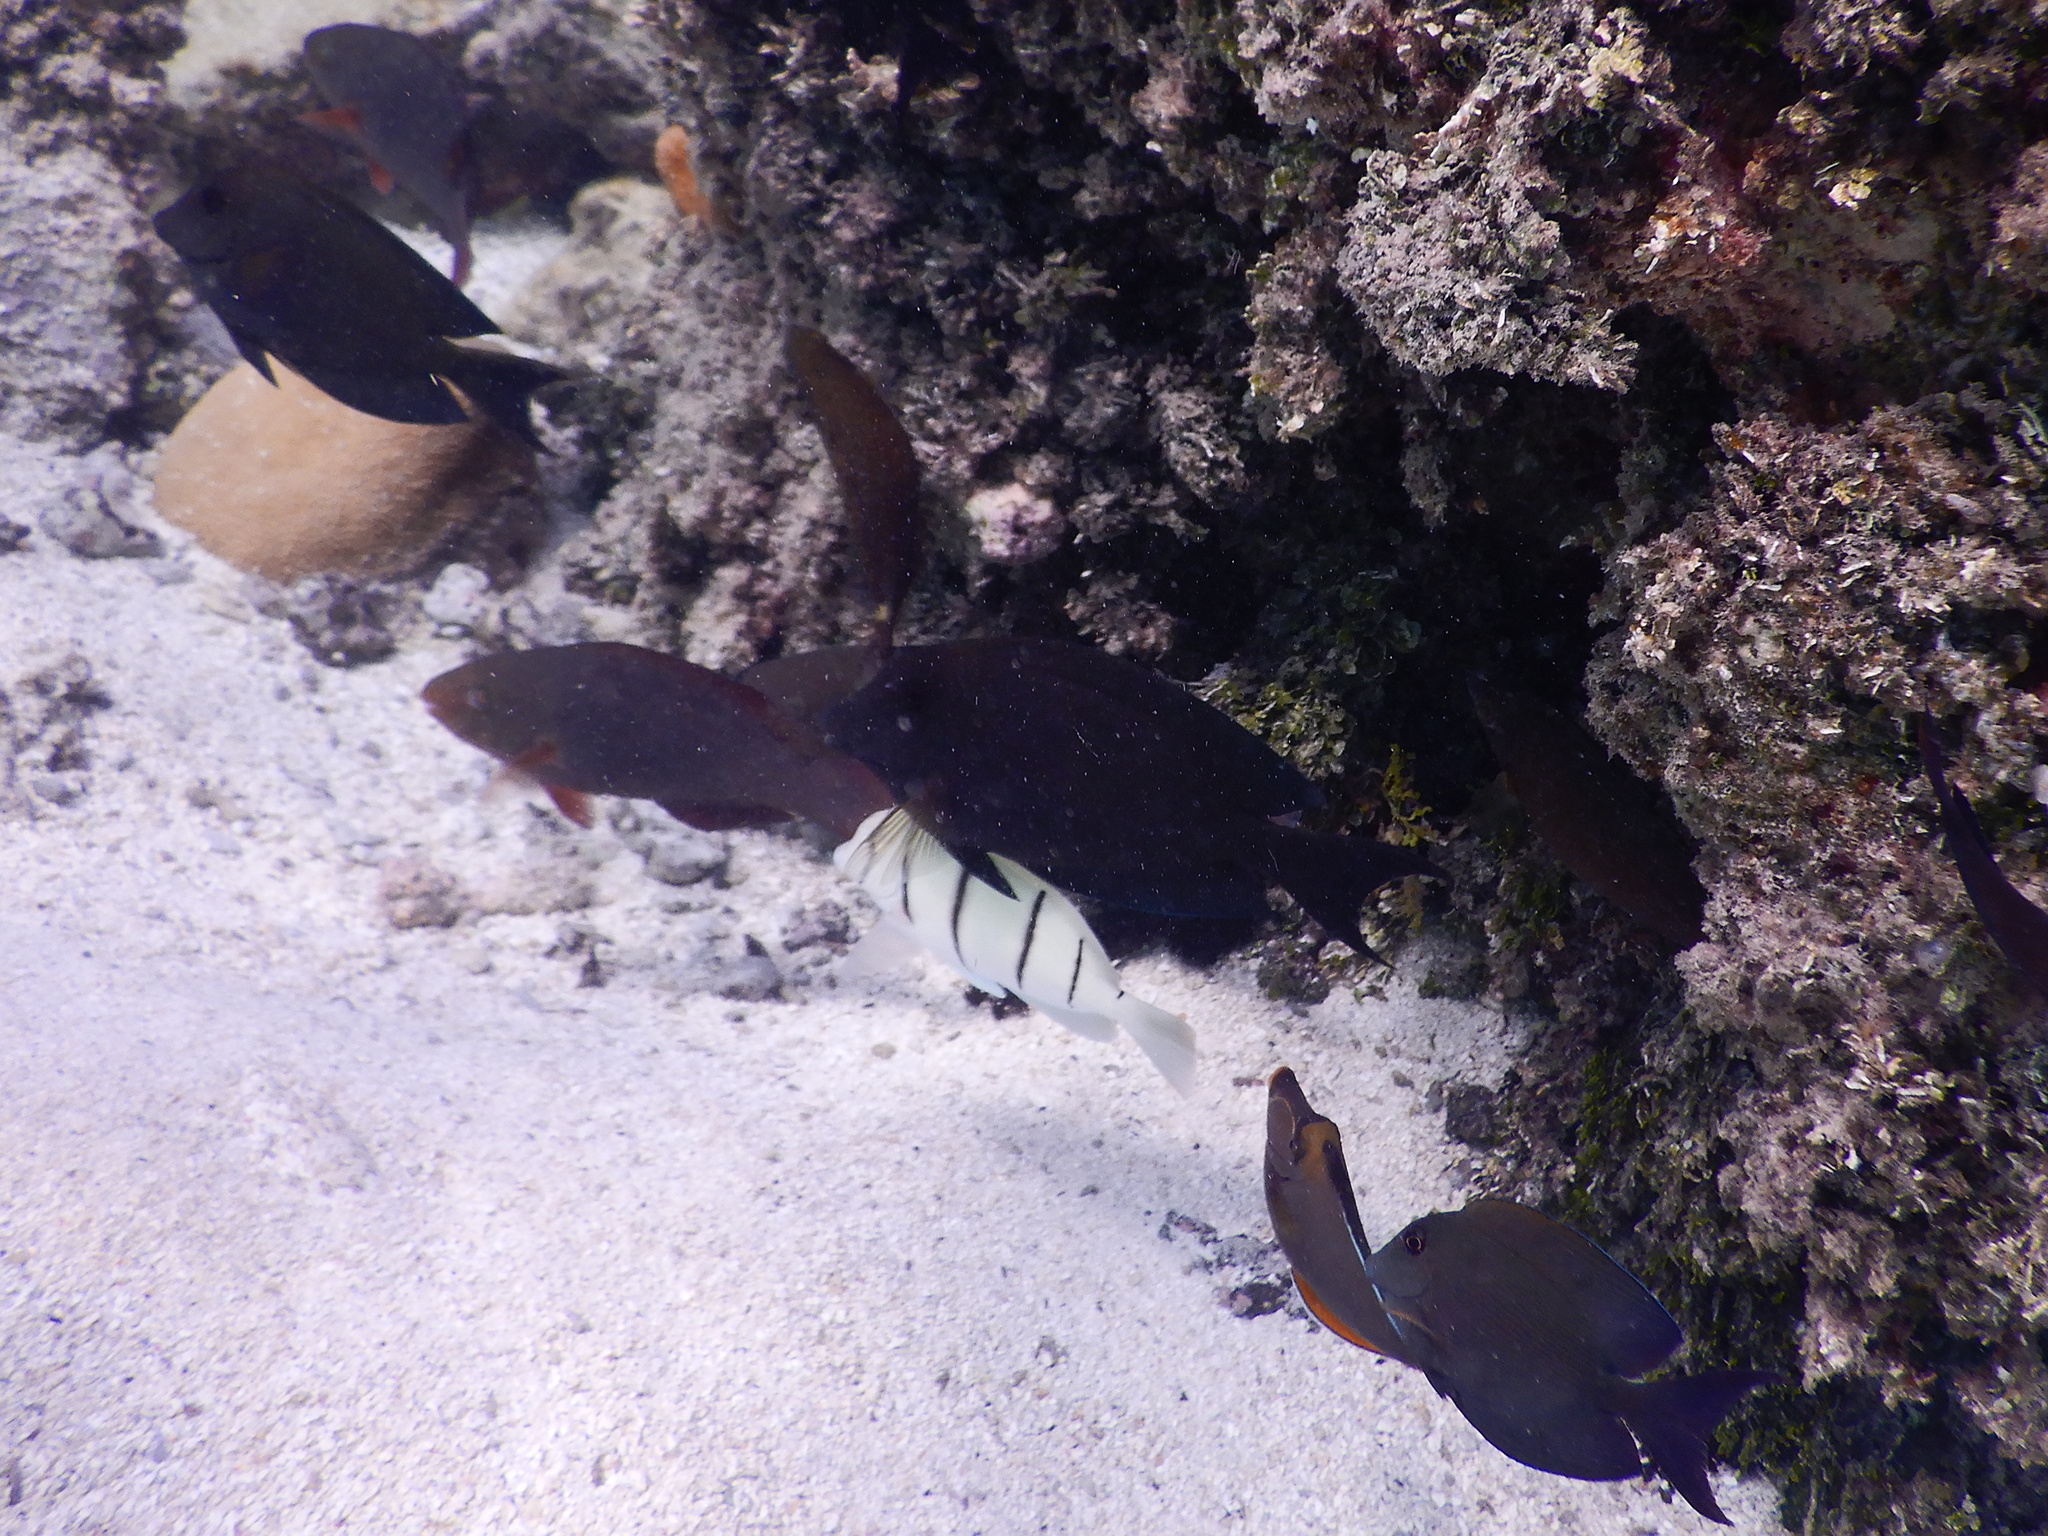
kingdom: Animalia
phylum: Chordata
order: Perciformes
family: Acanthuridae
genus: Ctenochaetus
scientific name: Ctenochaetus striatus
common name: Bristle-toothed surgeonfish
